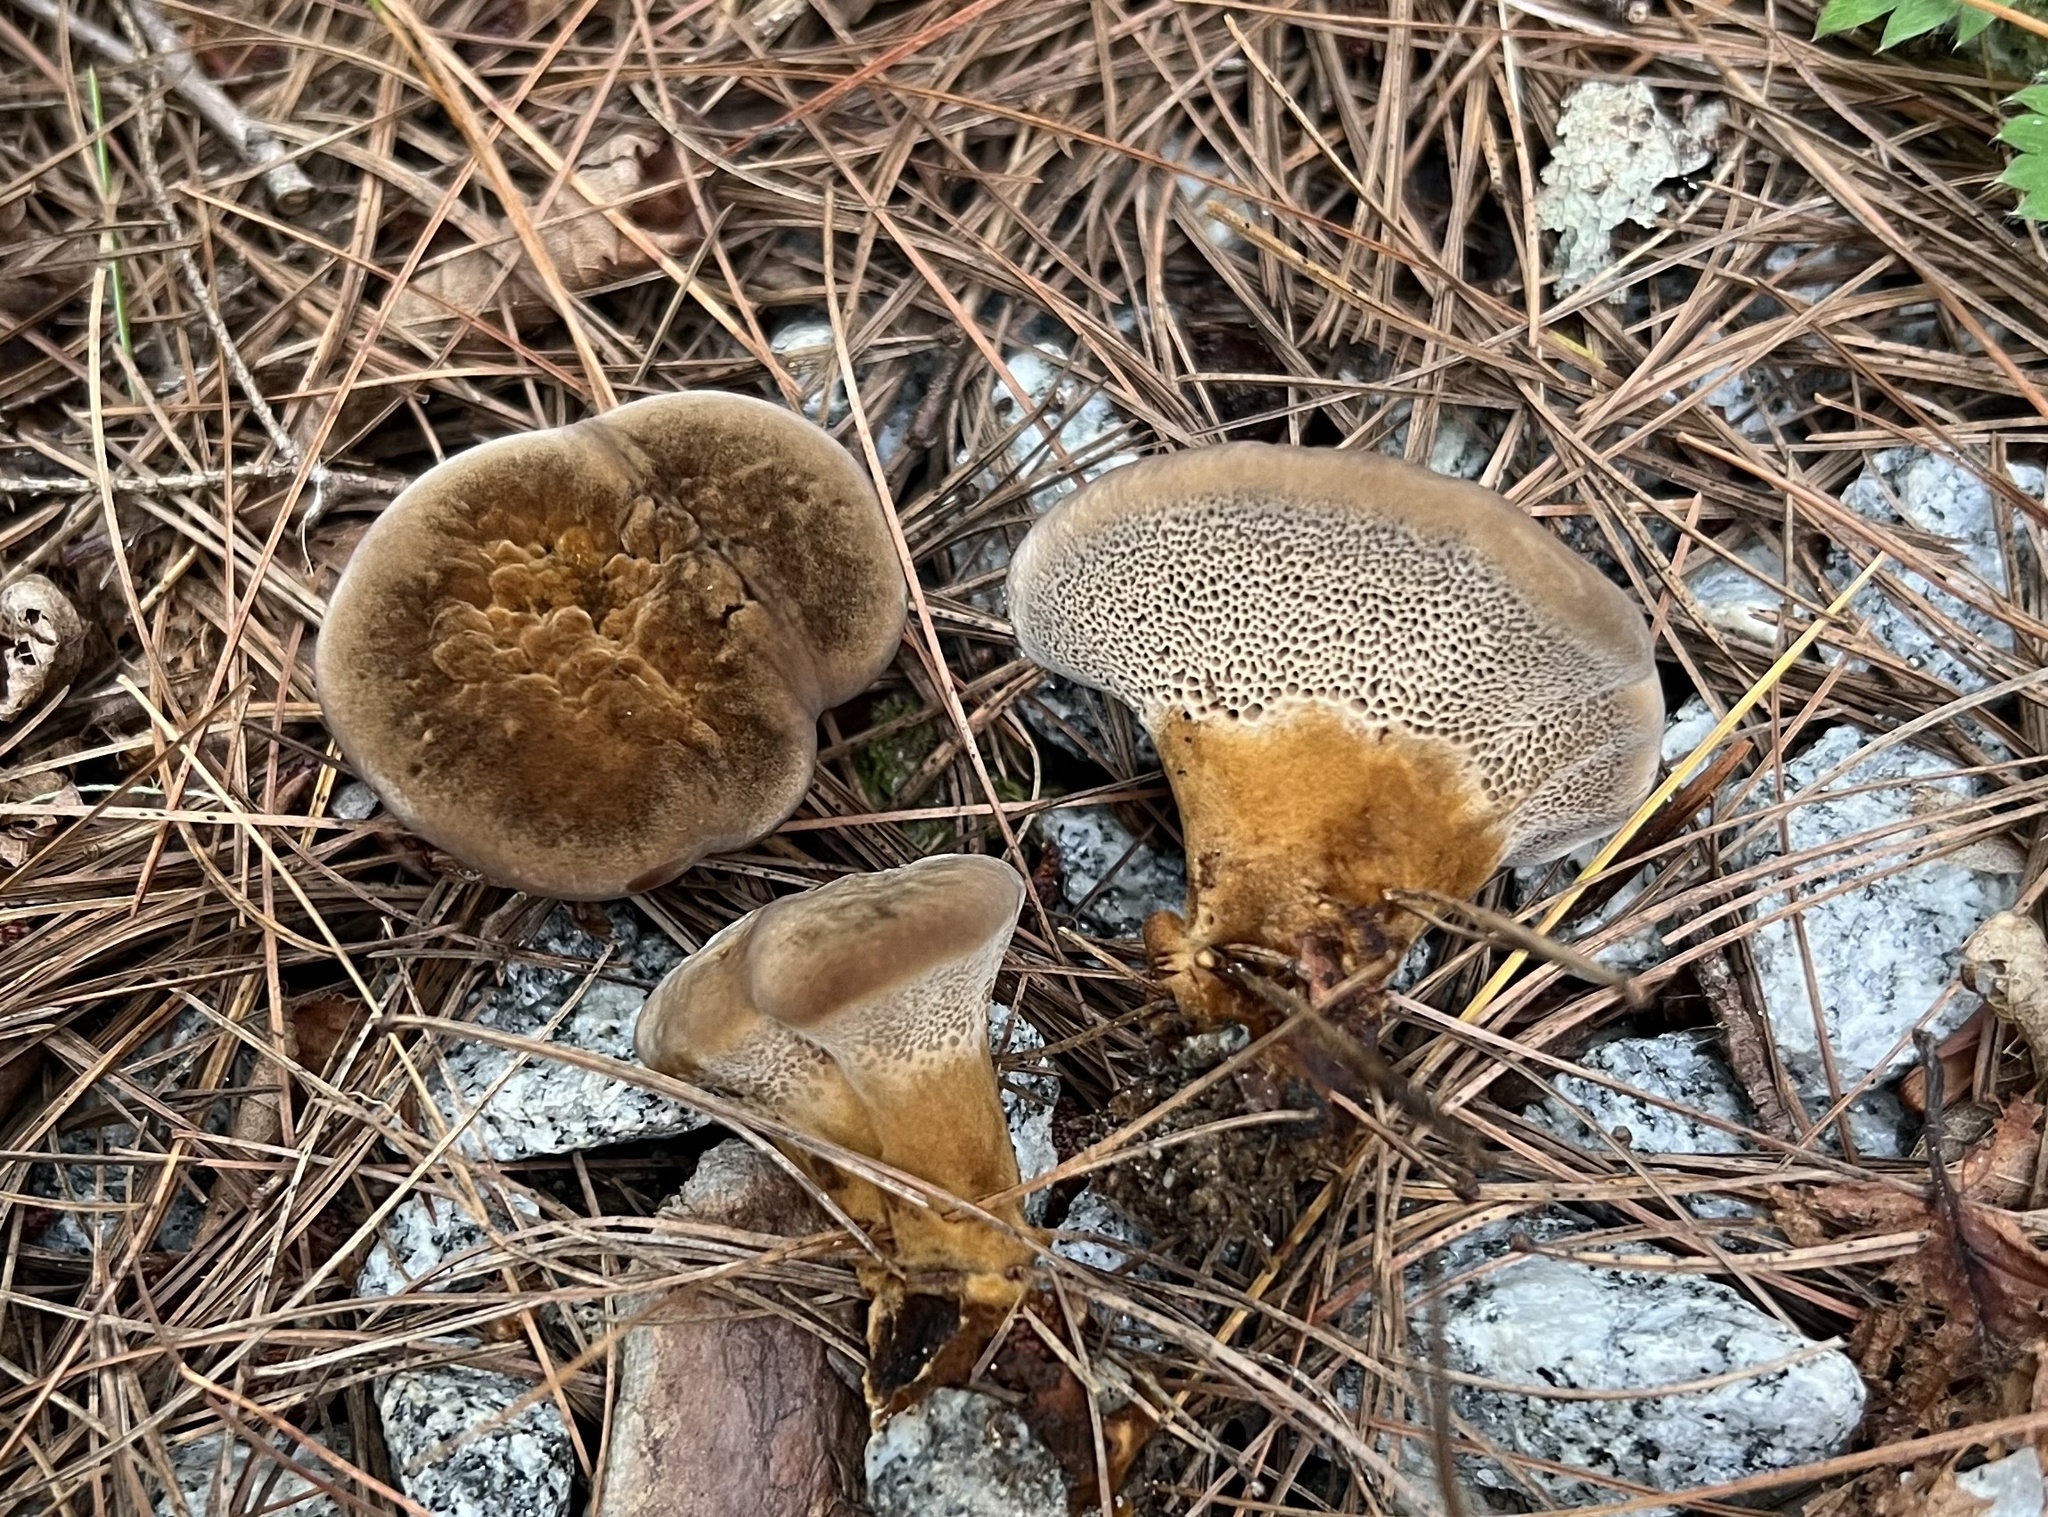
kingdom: Fungi
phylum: Basidiomycota
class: Agaricomycetes
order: Hymenochaetales
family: Hymenochaetaceae
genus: Coltricia
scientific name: Coltricia montagnei
